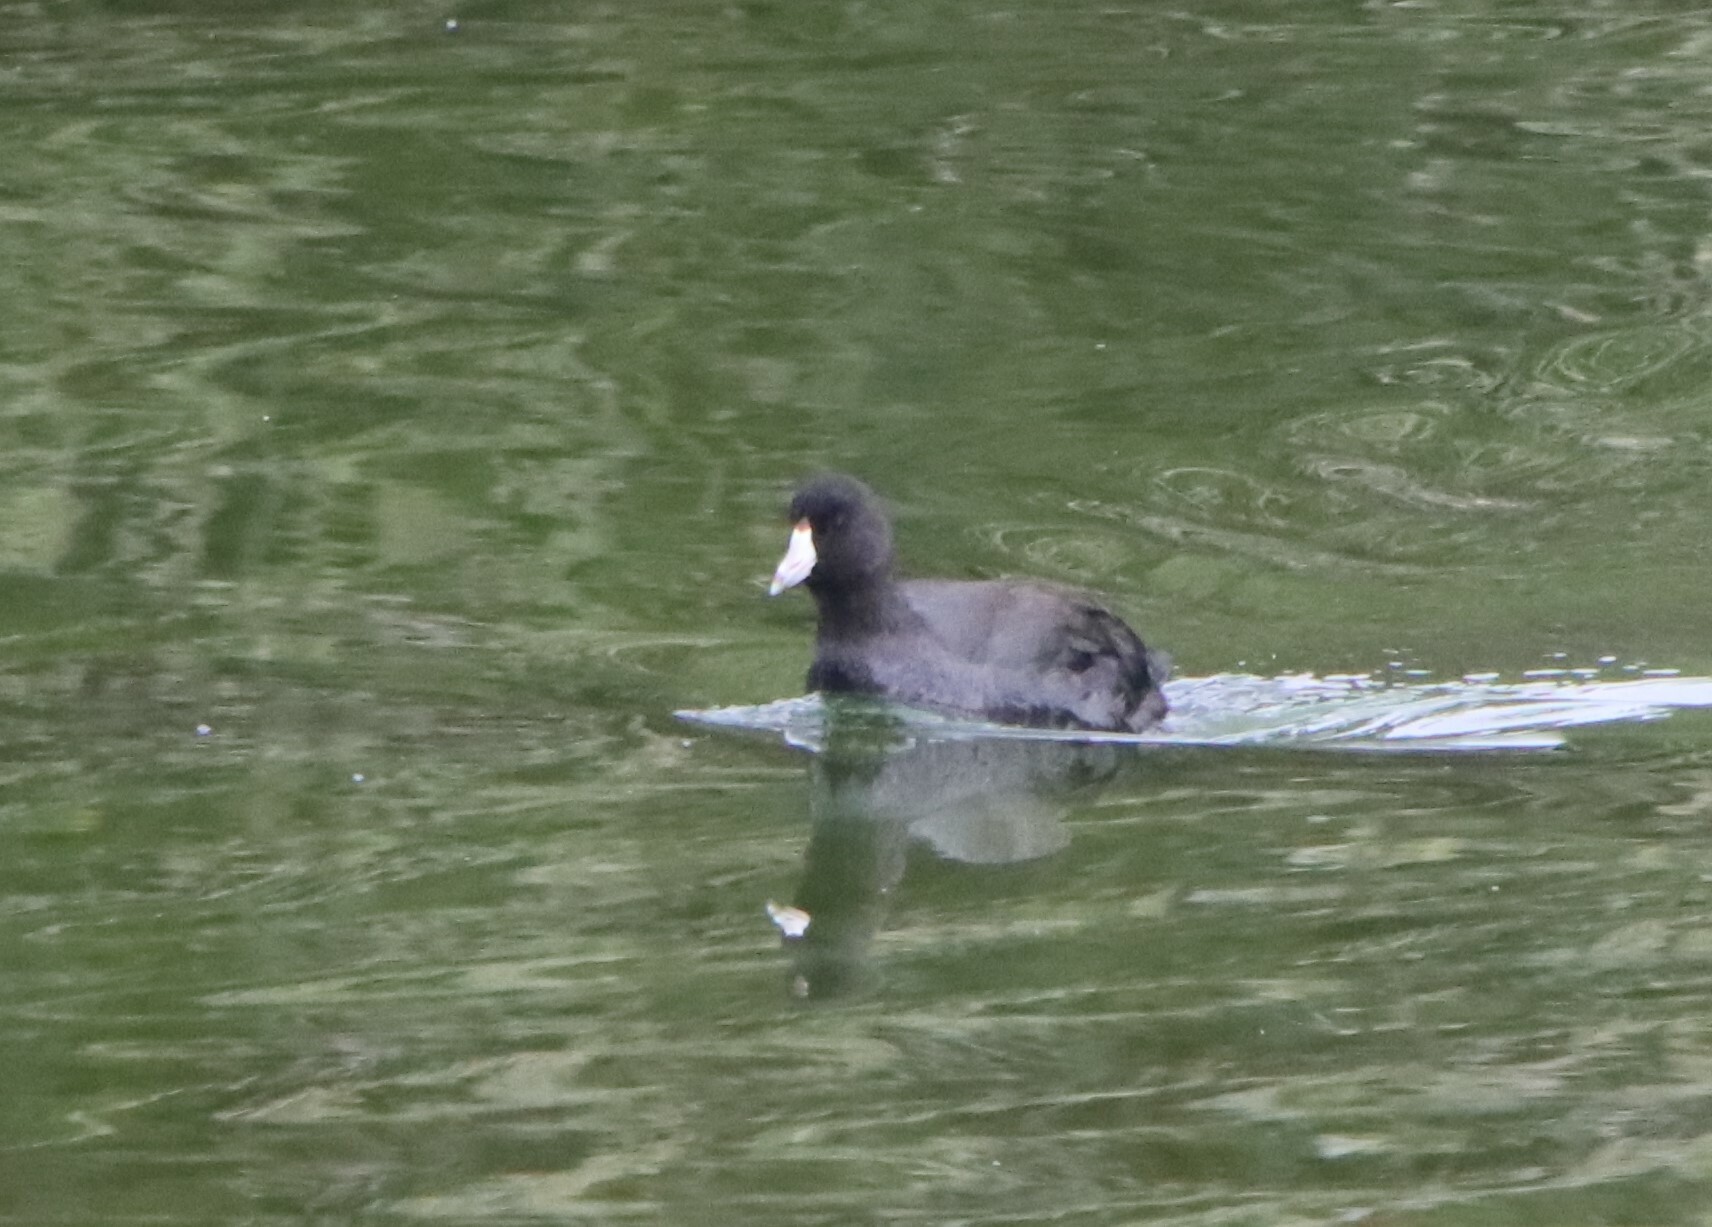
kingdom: Animalia
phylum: Chordata
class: Aves
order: Gruiformes
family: Rallidae
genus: Fulica
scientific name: Fulica americana
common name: American coot
